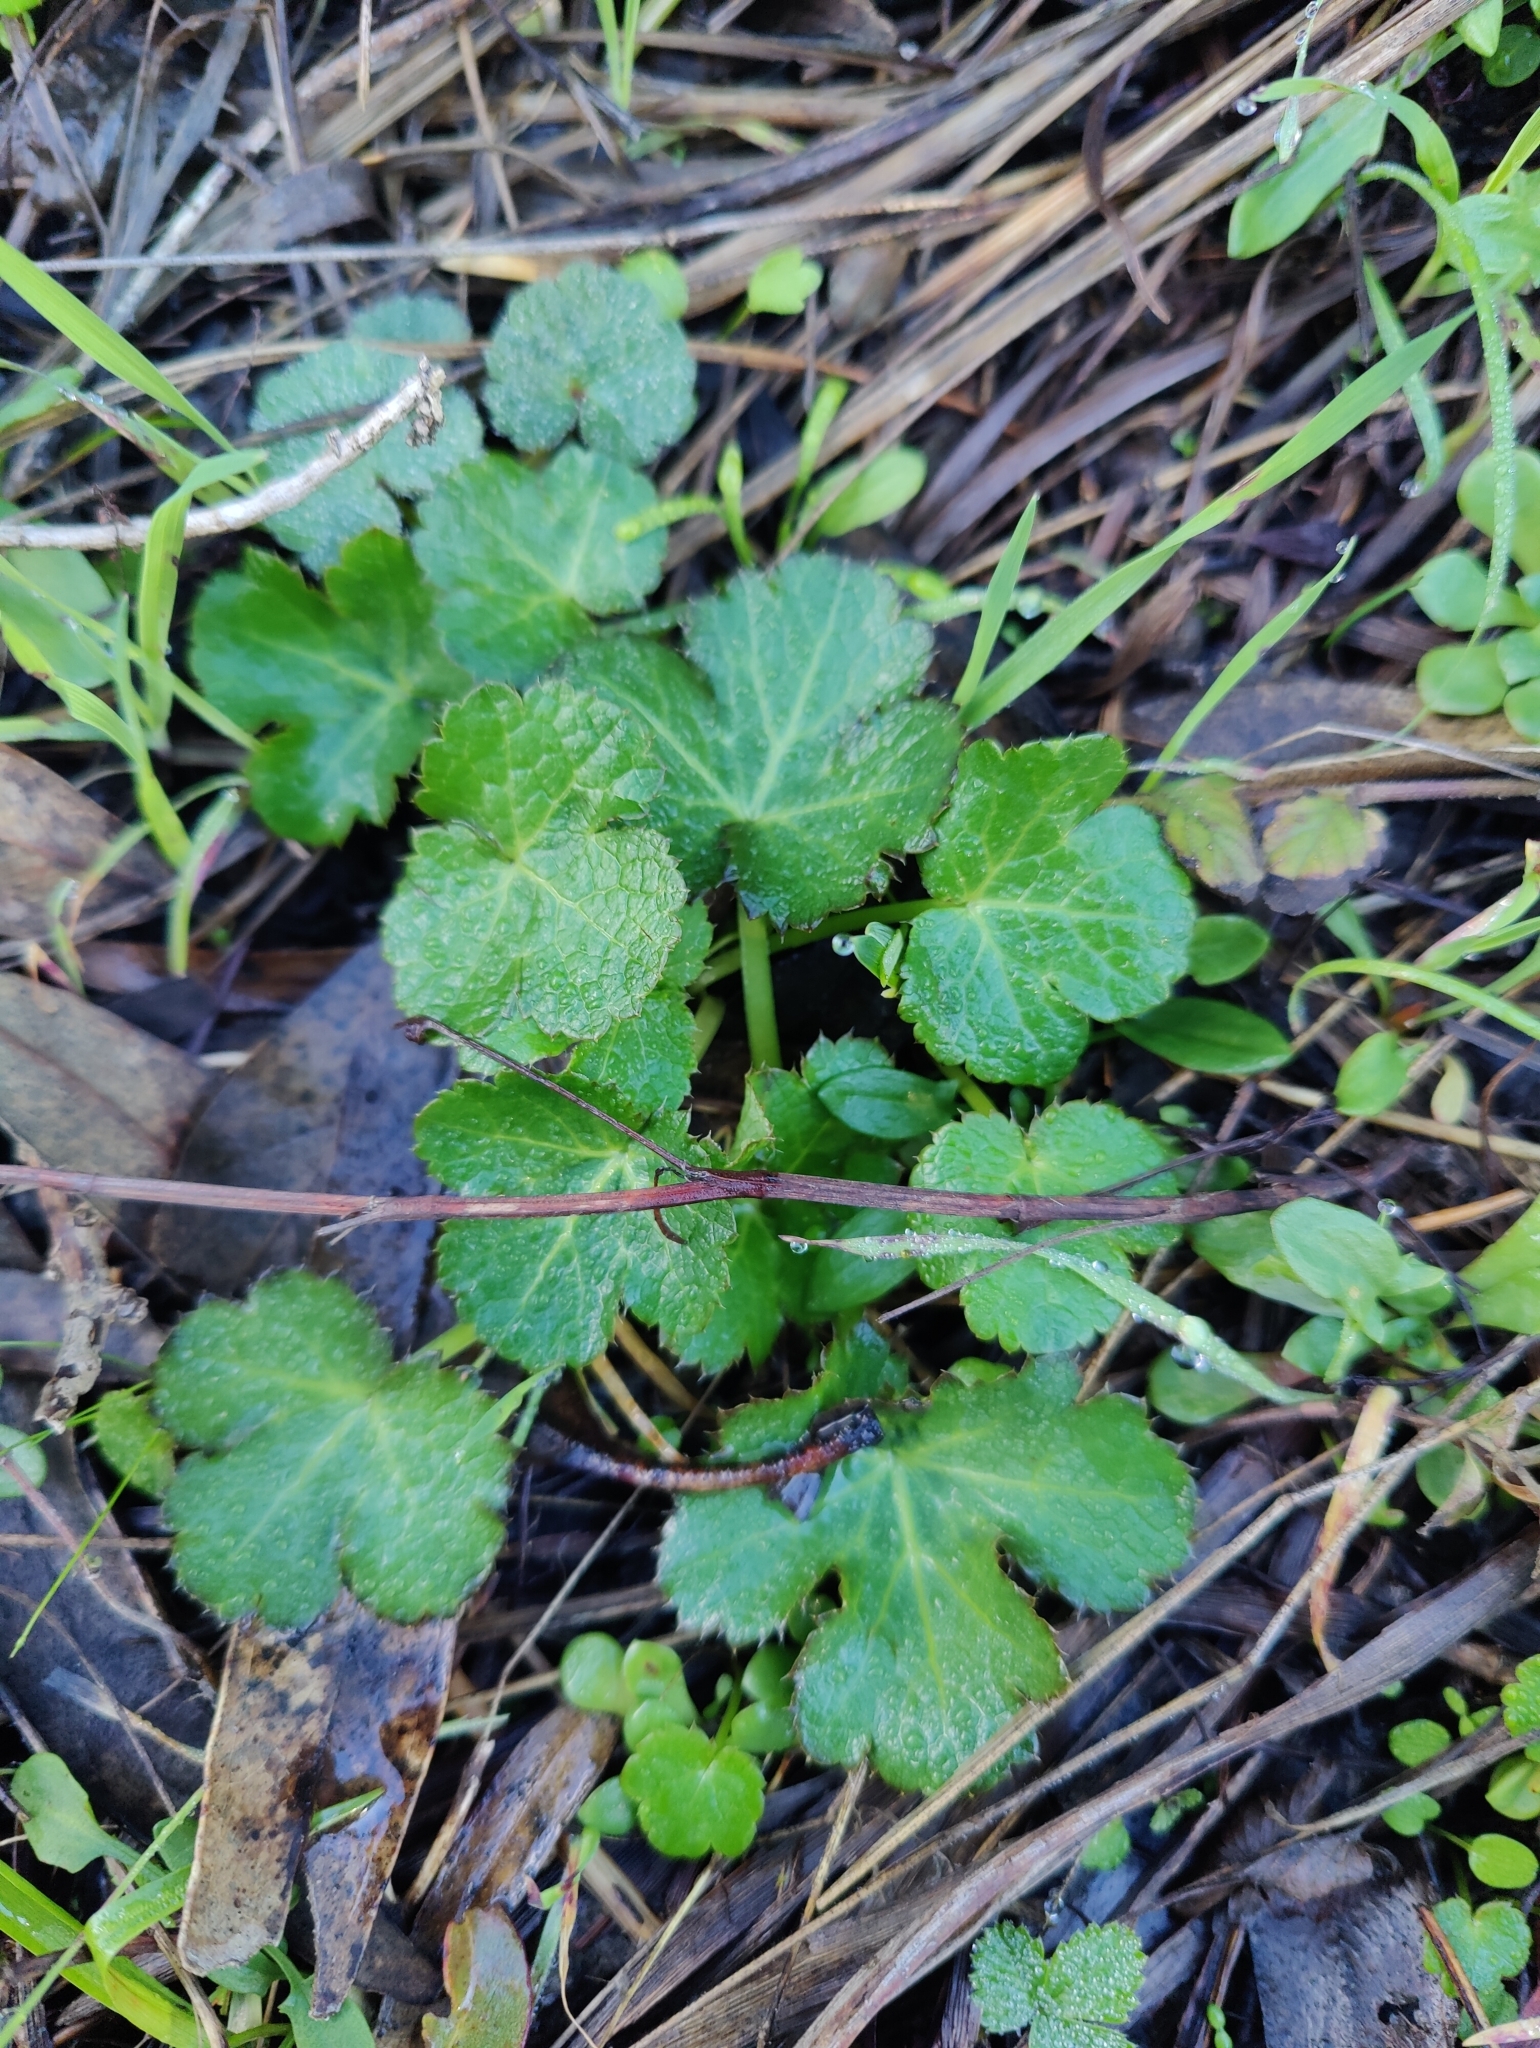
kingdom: Plantae
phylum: Tracheophyta
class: Magnoliopsida
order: Apiales
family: Apiaceae
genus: Sanicula
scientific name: Sanicula crassicaulis
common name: Western snakeroot
